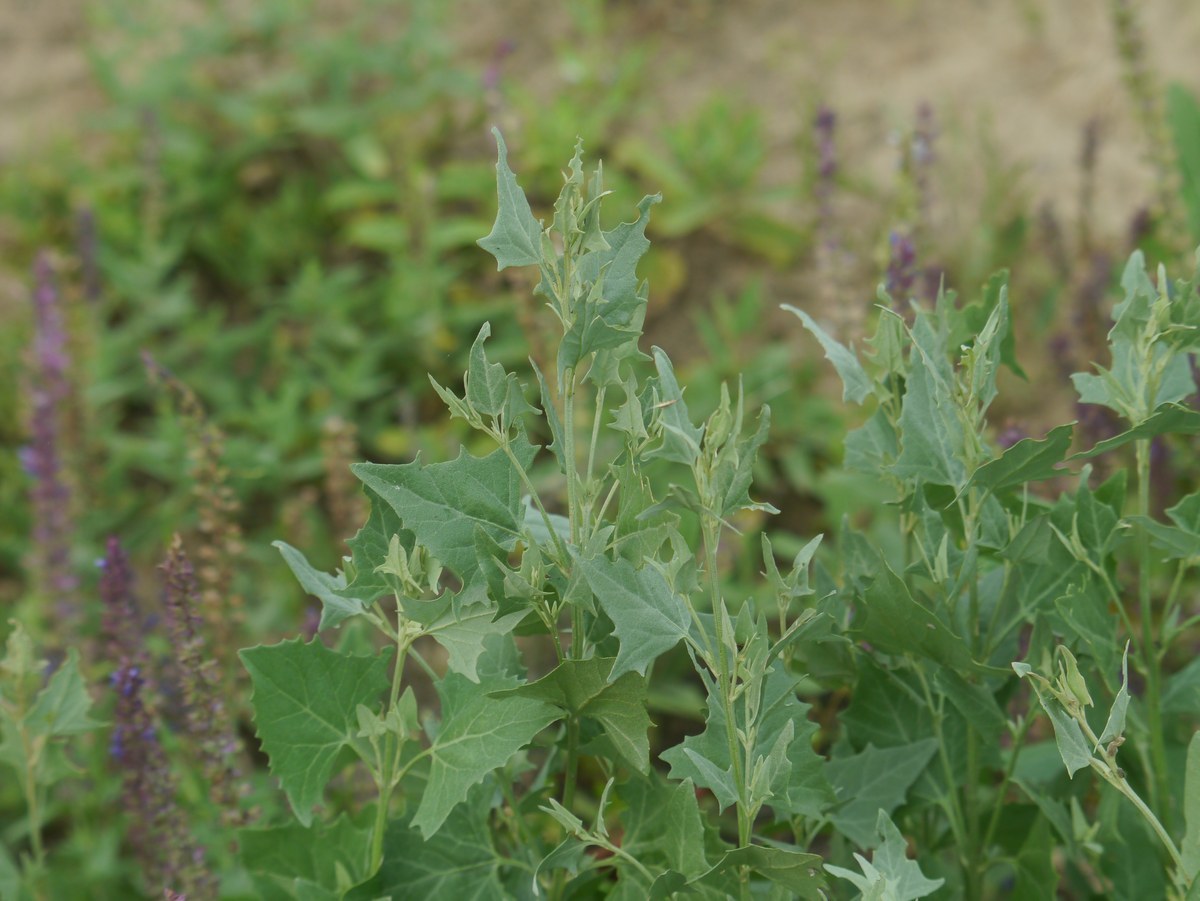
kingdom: Plantae
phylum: Tracheophyta
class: Magnoliopsida
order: Caryophyllales
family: Amaranthaceae
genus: Atriplex
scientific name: Atriplex sagittata
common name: Purple orache
